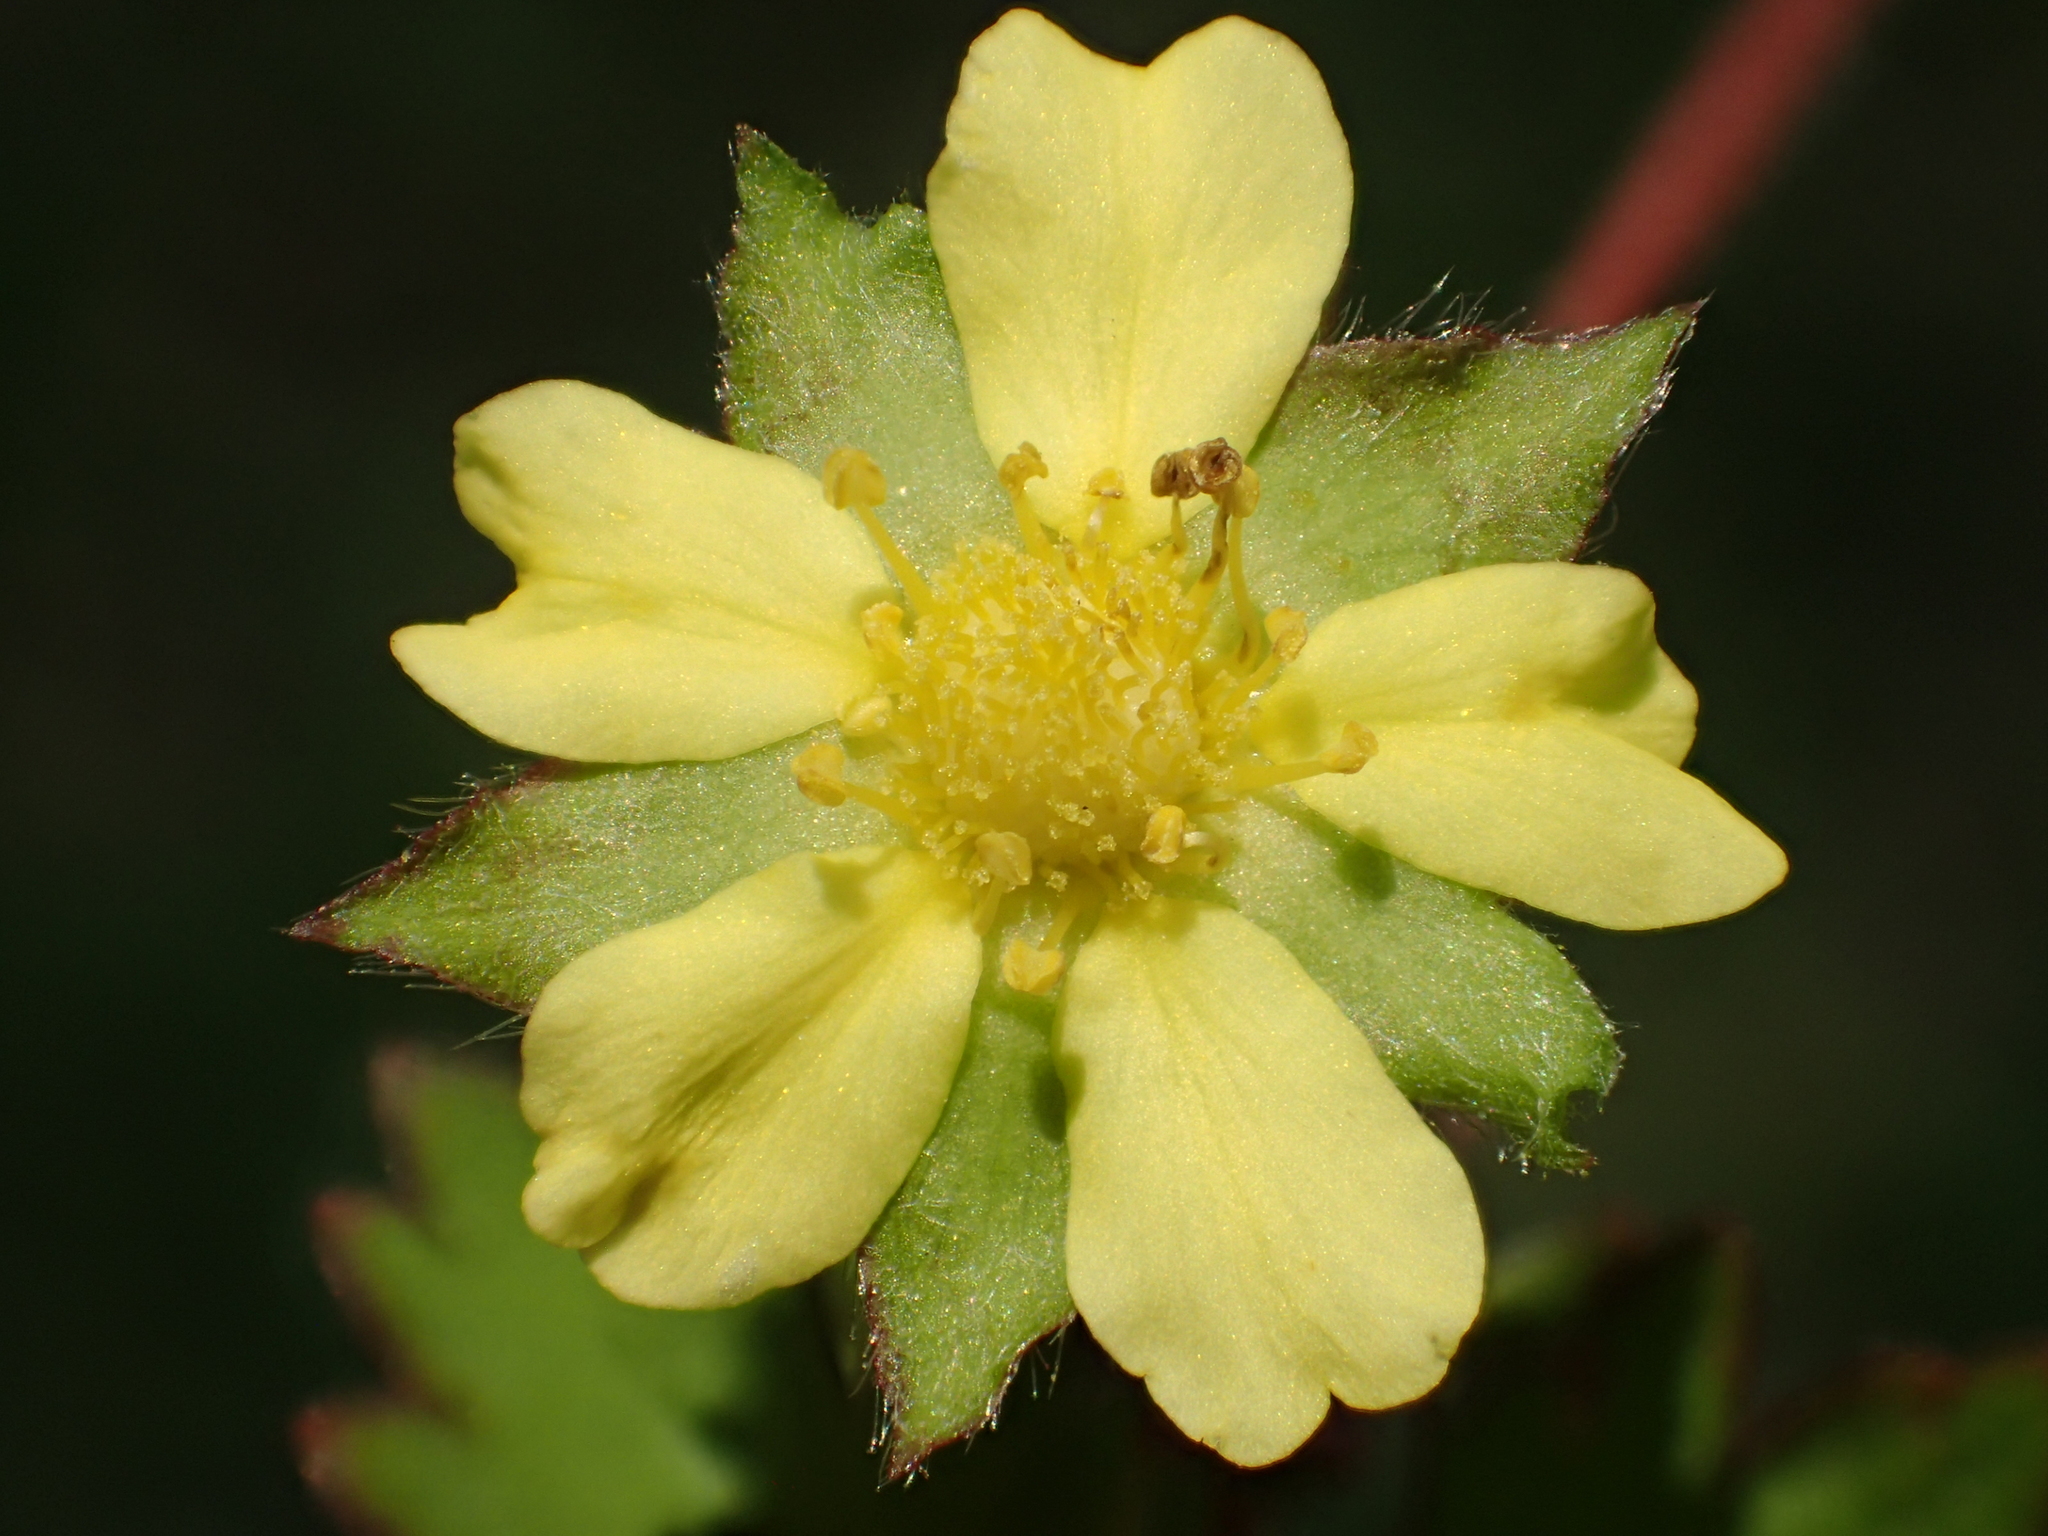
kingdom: Plantae
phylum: Tracheophyta
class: Magnoliopsida
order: Rosales
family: Rosaceae
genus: Potentilla
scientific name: Potentilla wallichiana
